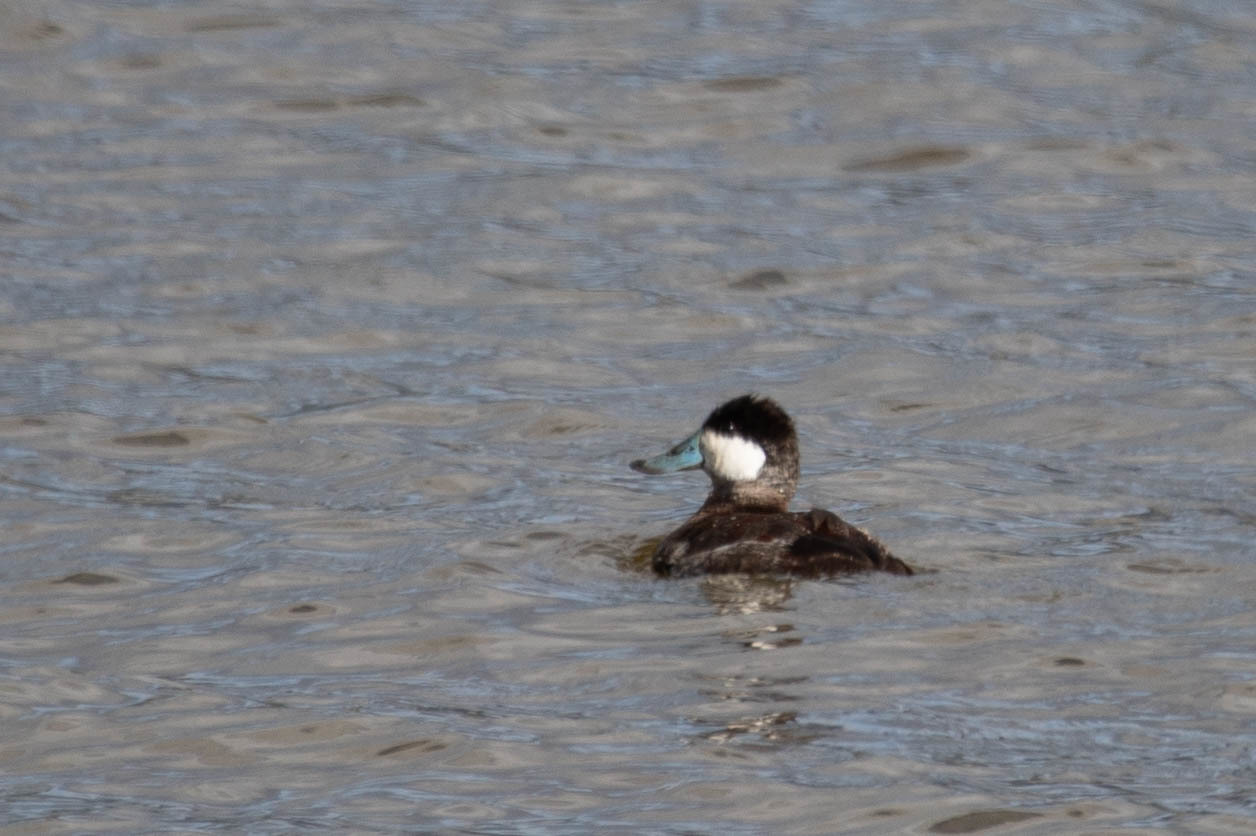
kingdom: Animalia
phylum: Chordata
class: Aves
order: Anseriformes
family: Anatidae
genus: Oxyura
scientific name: Oxyura jamaicensis
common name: Ruddy duck
